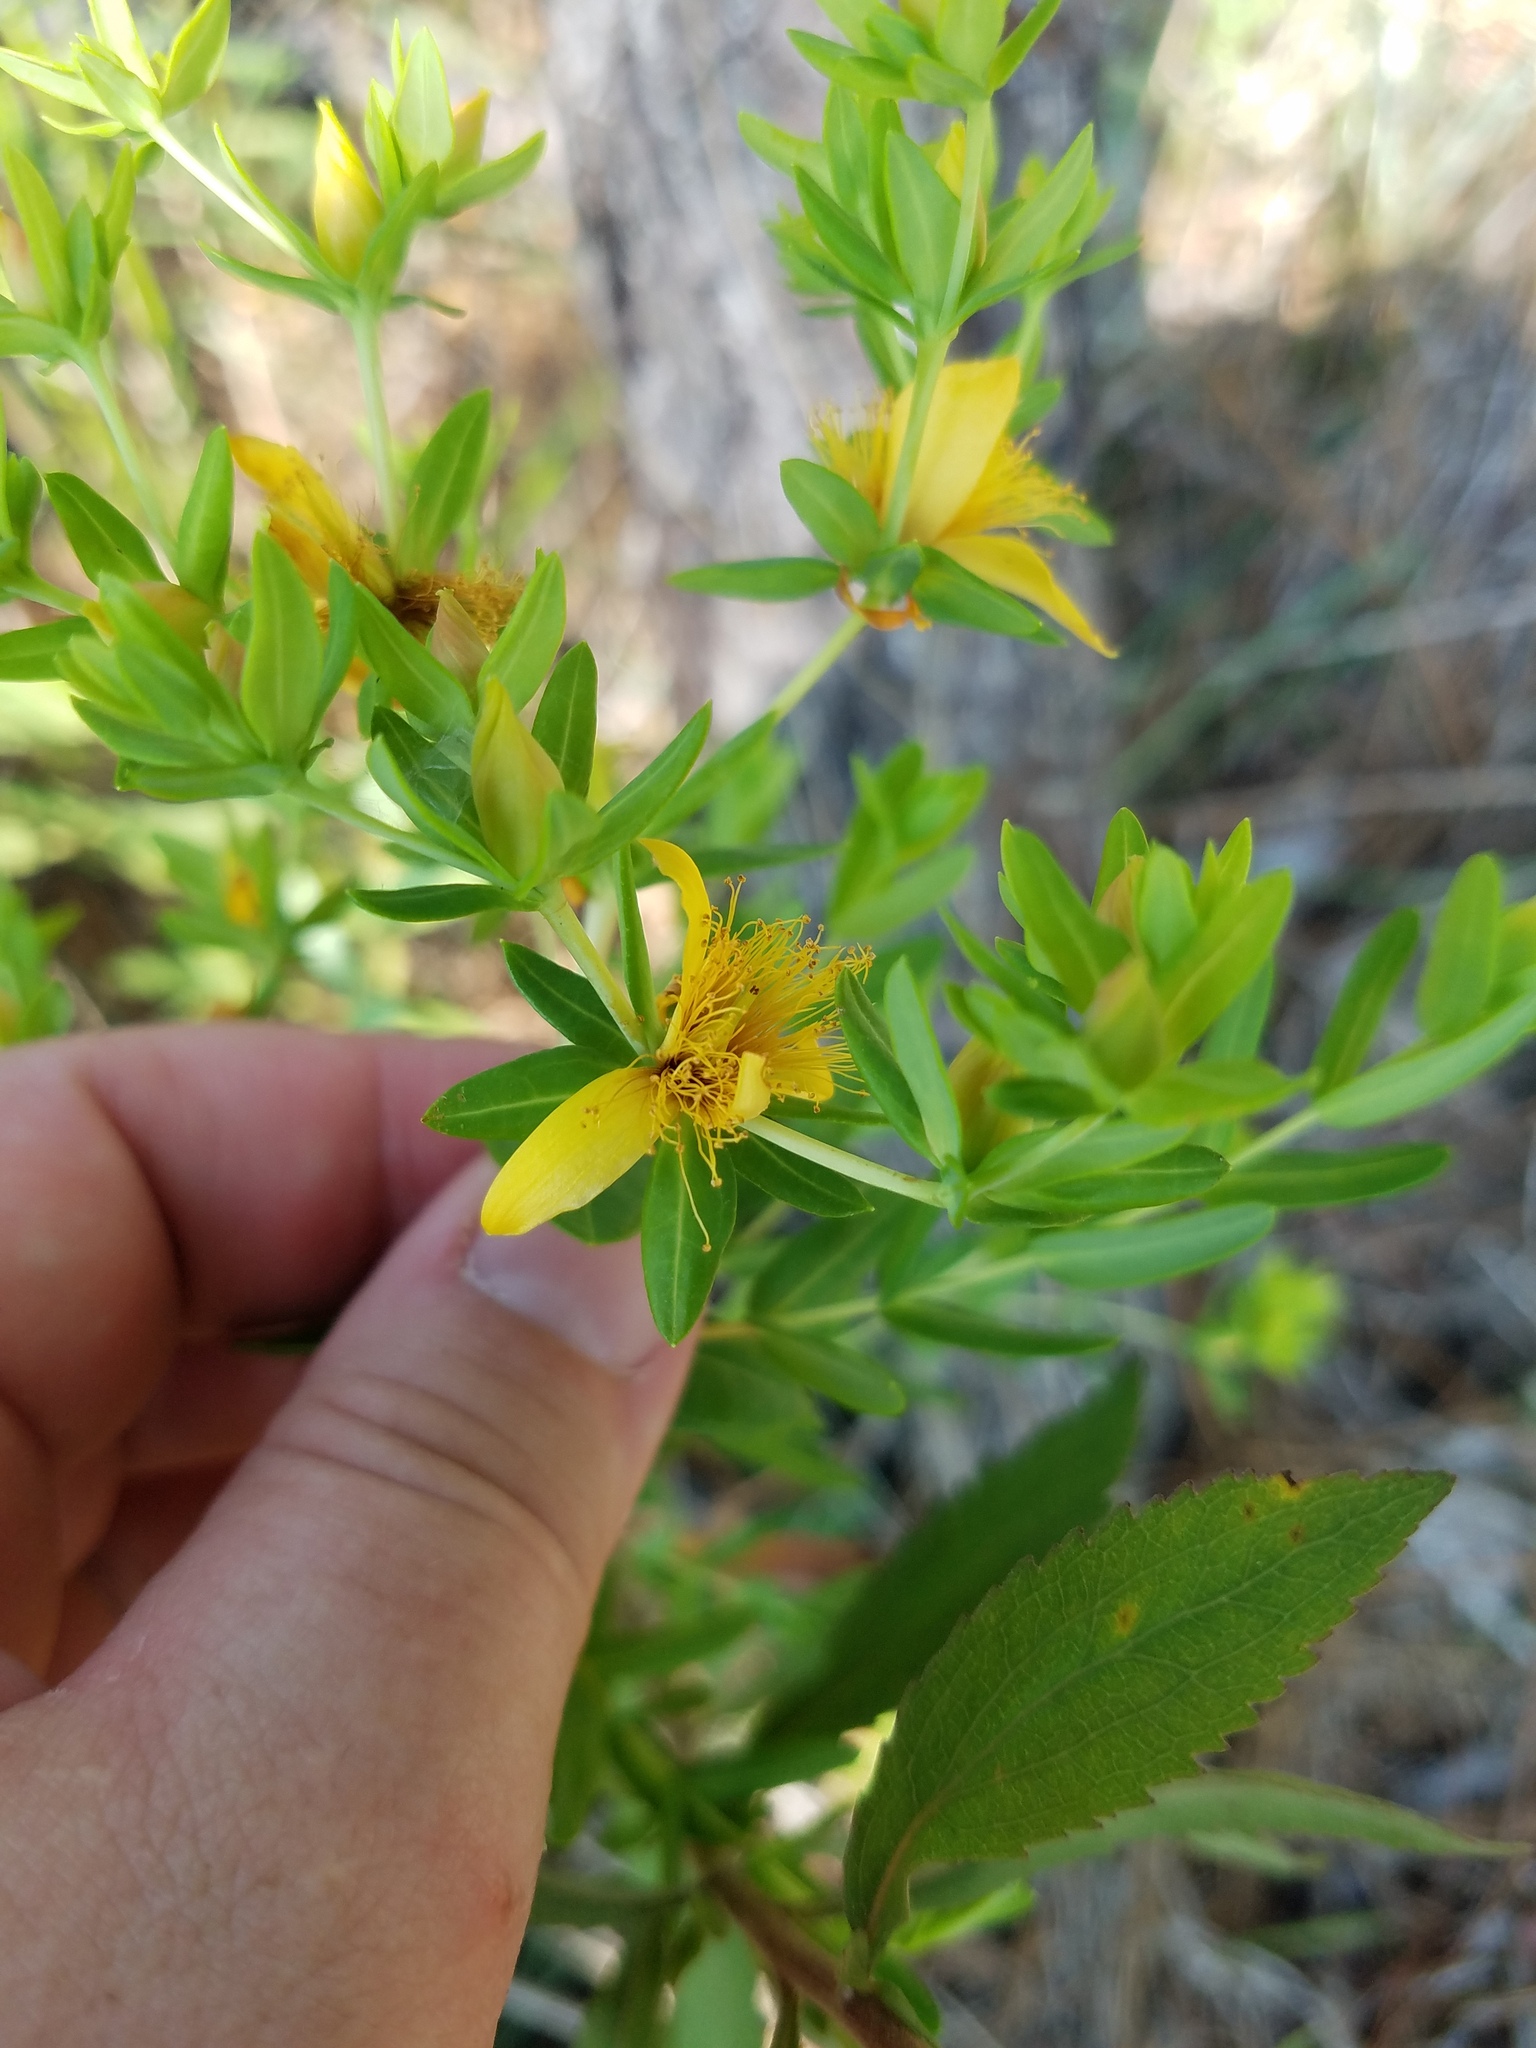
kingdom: Plantae
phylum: Tracheophyta
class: Magnoliopsida
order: Malpighiales
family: Hypericaceae
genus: Hypericum
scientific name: Hypericum myrtifolium
